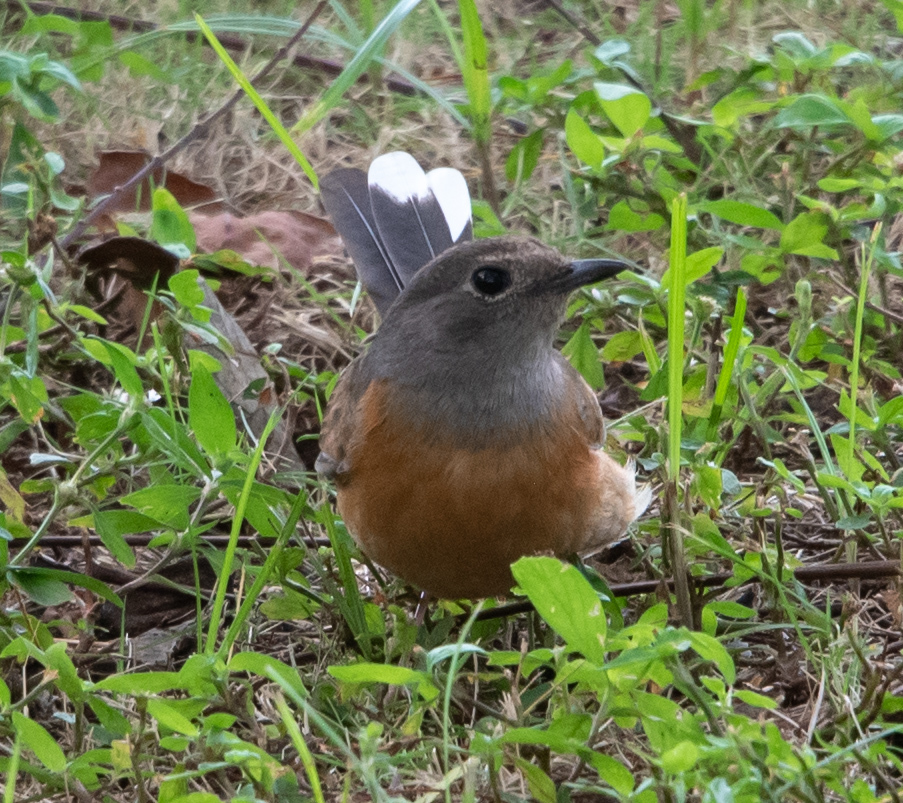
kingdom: Animalia
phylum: Chordata
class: Aves
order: Passeriformes
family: Muscicapidae
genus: Copsychus
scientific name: Copsychus malabaricus
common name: White-rumped shama
